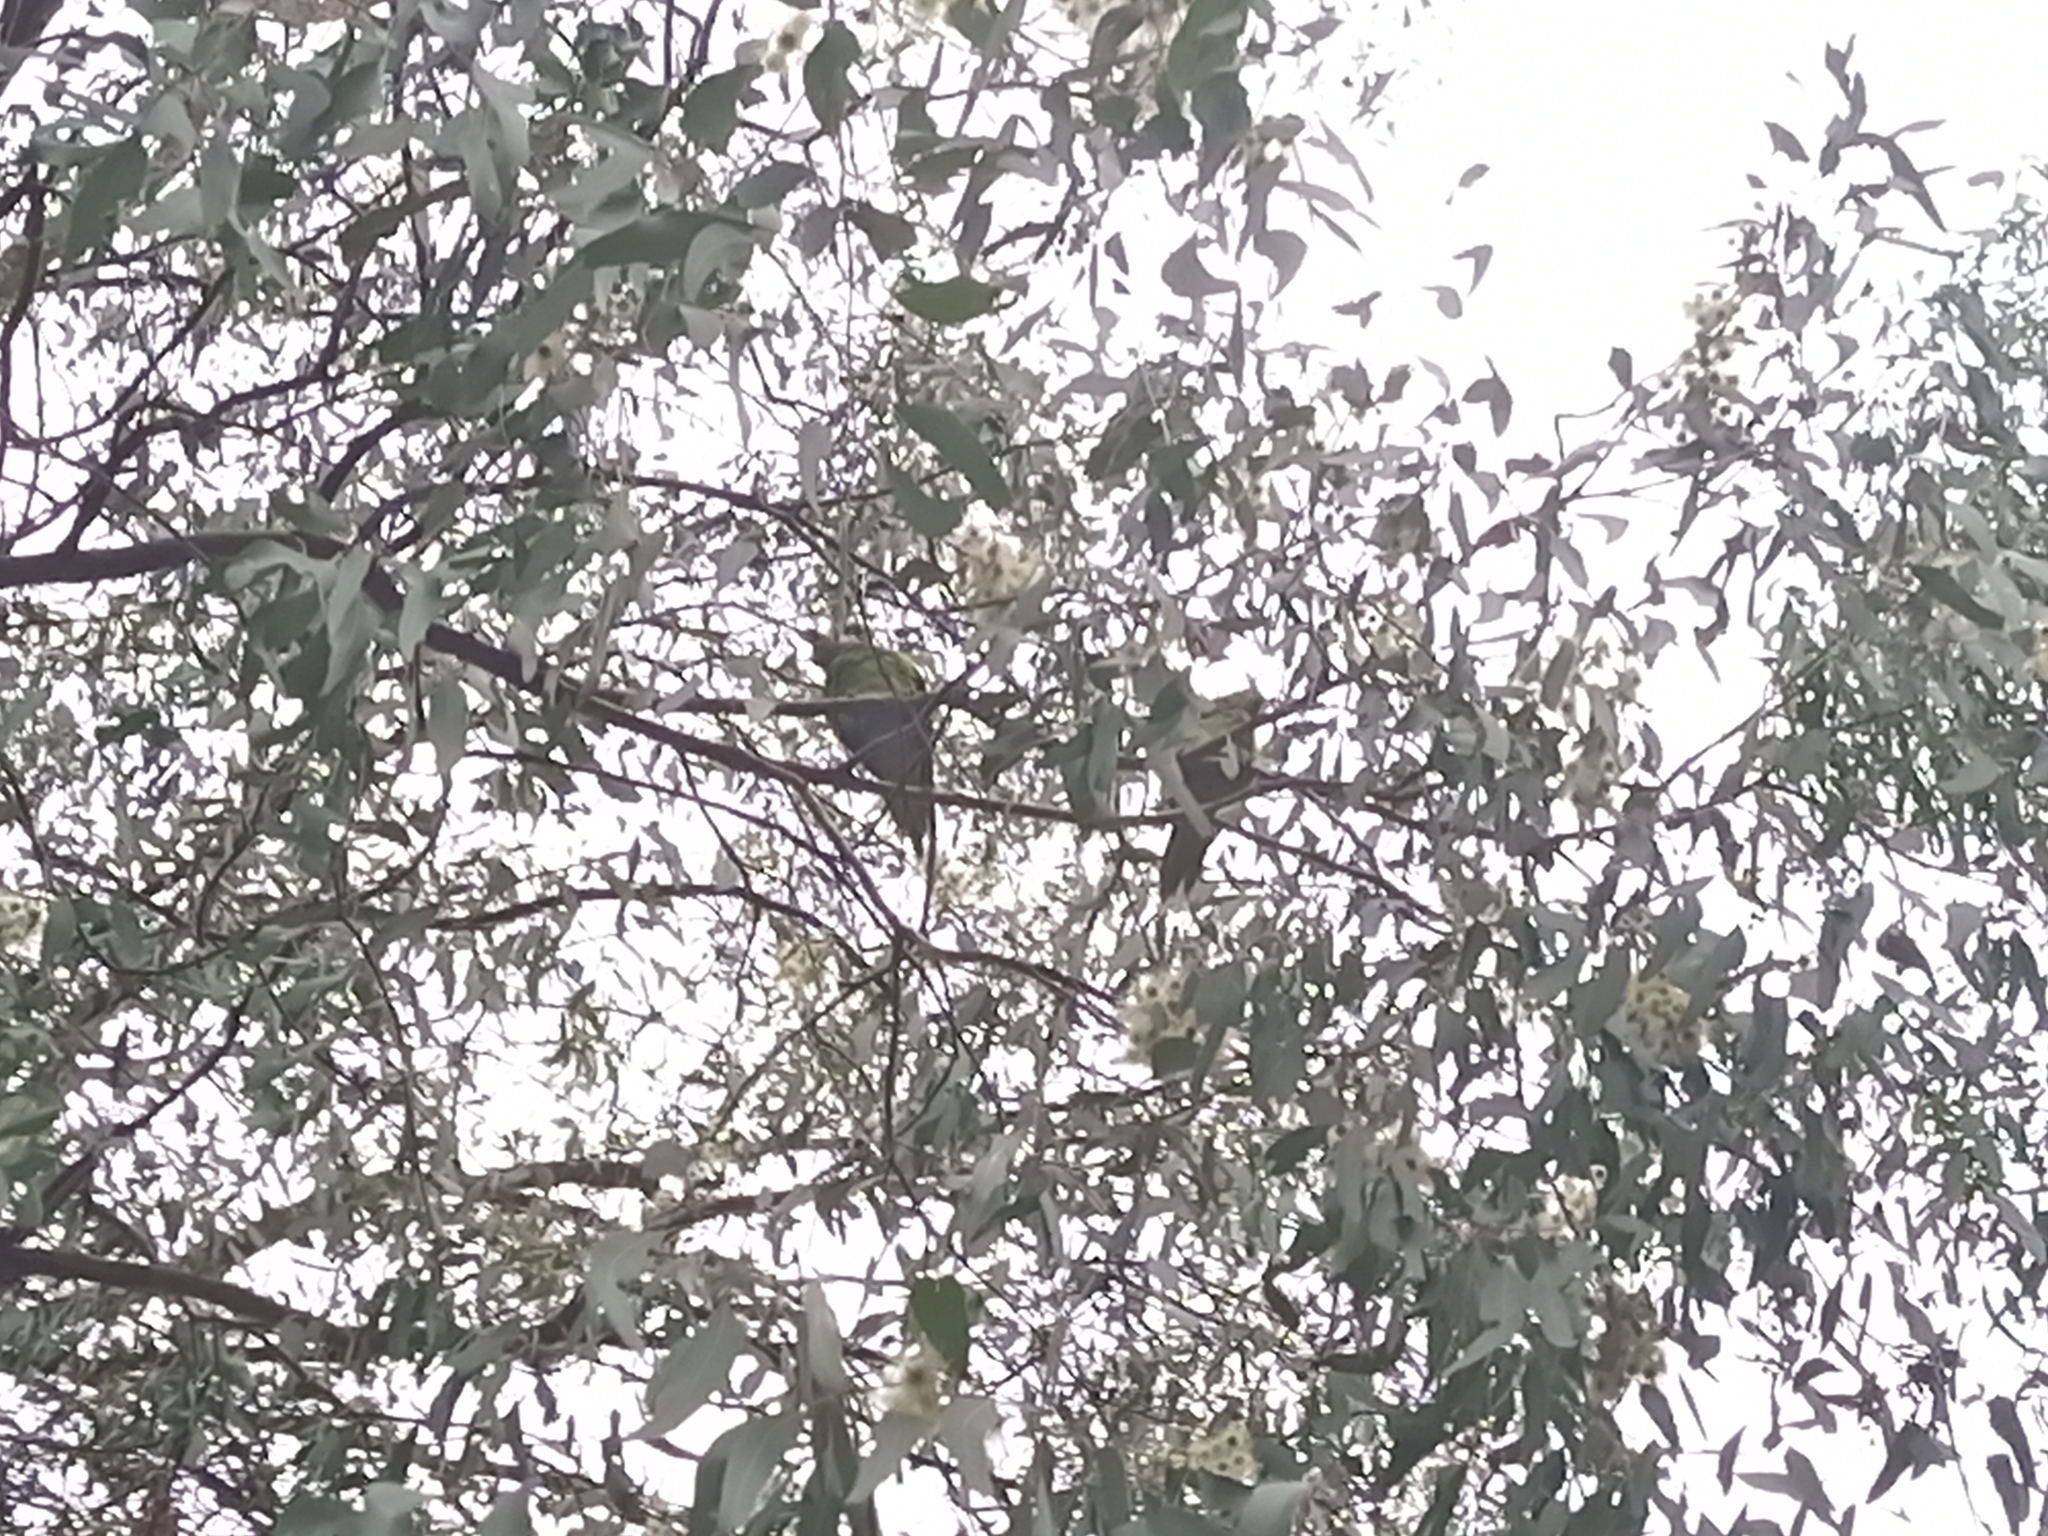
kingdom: Animalia
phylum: Chordata
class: Aves
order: Psittaciformes
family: Psittacidae
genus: Glossopsitta
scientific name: Glossopsitta concinna
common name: Musk lorikeet
